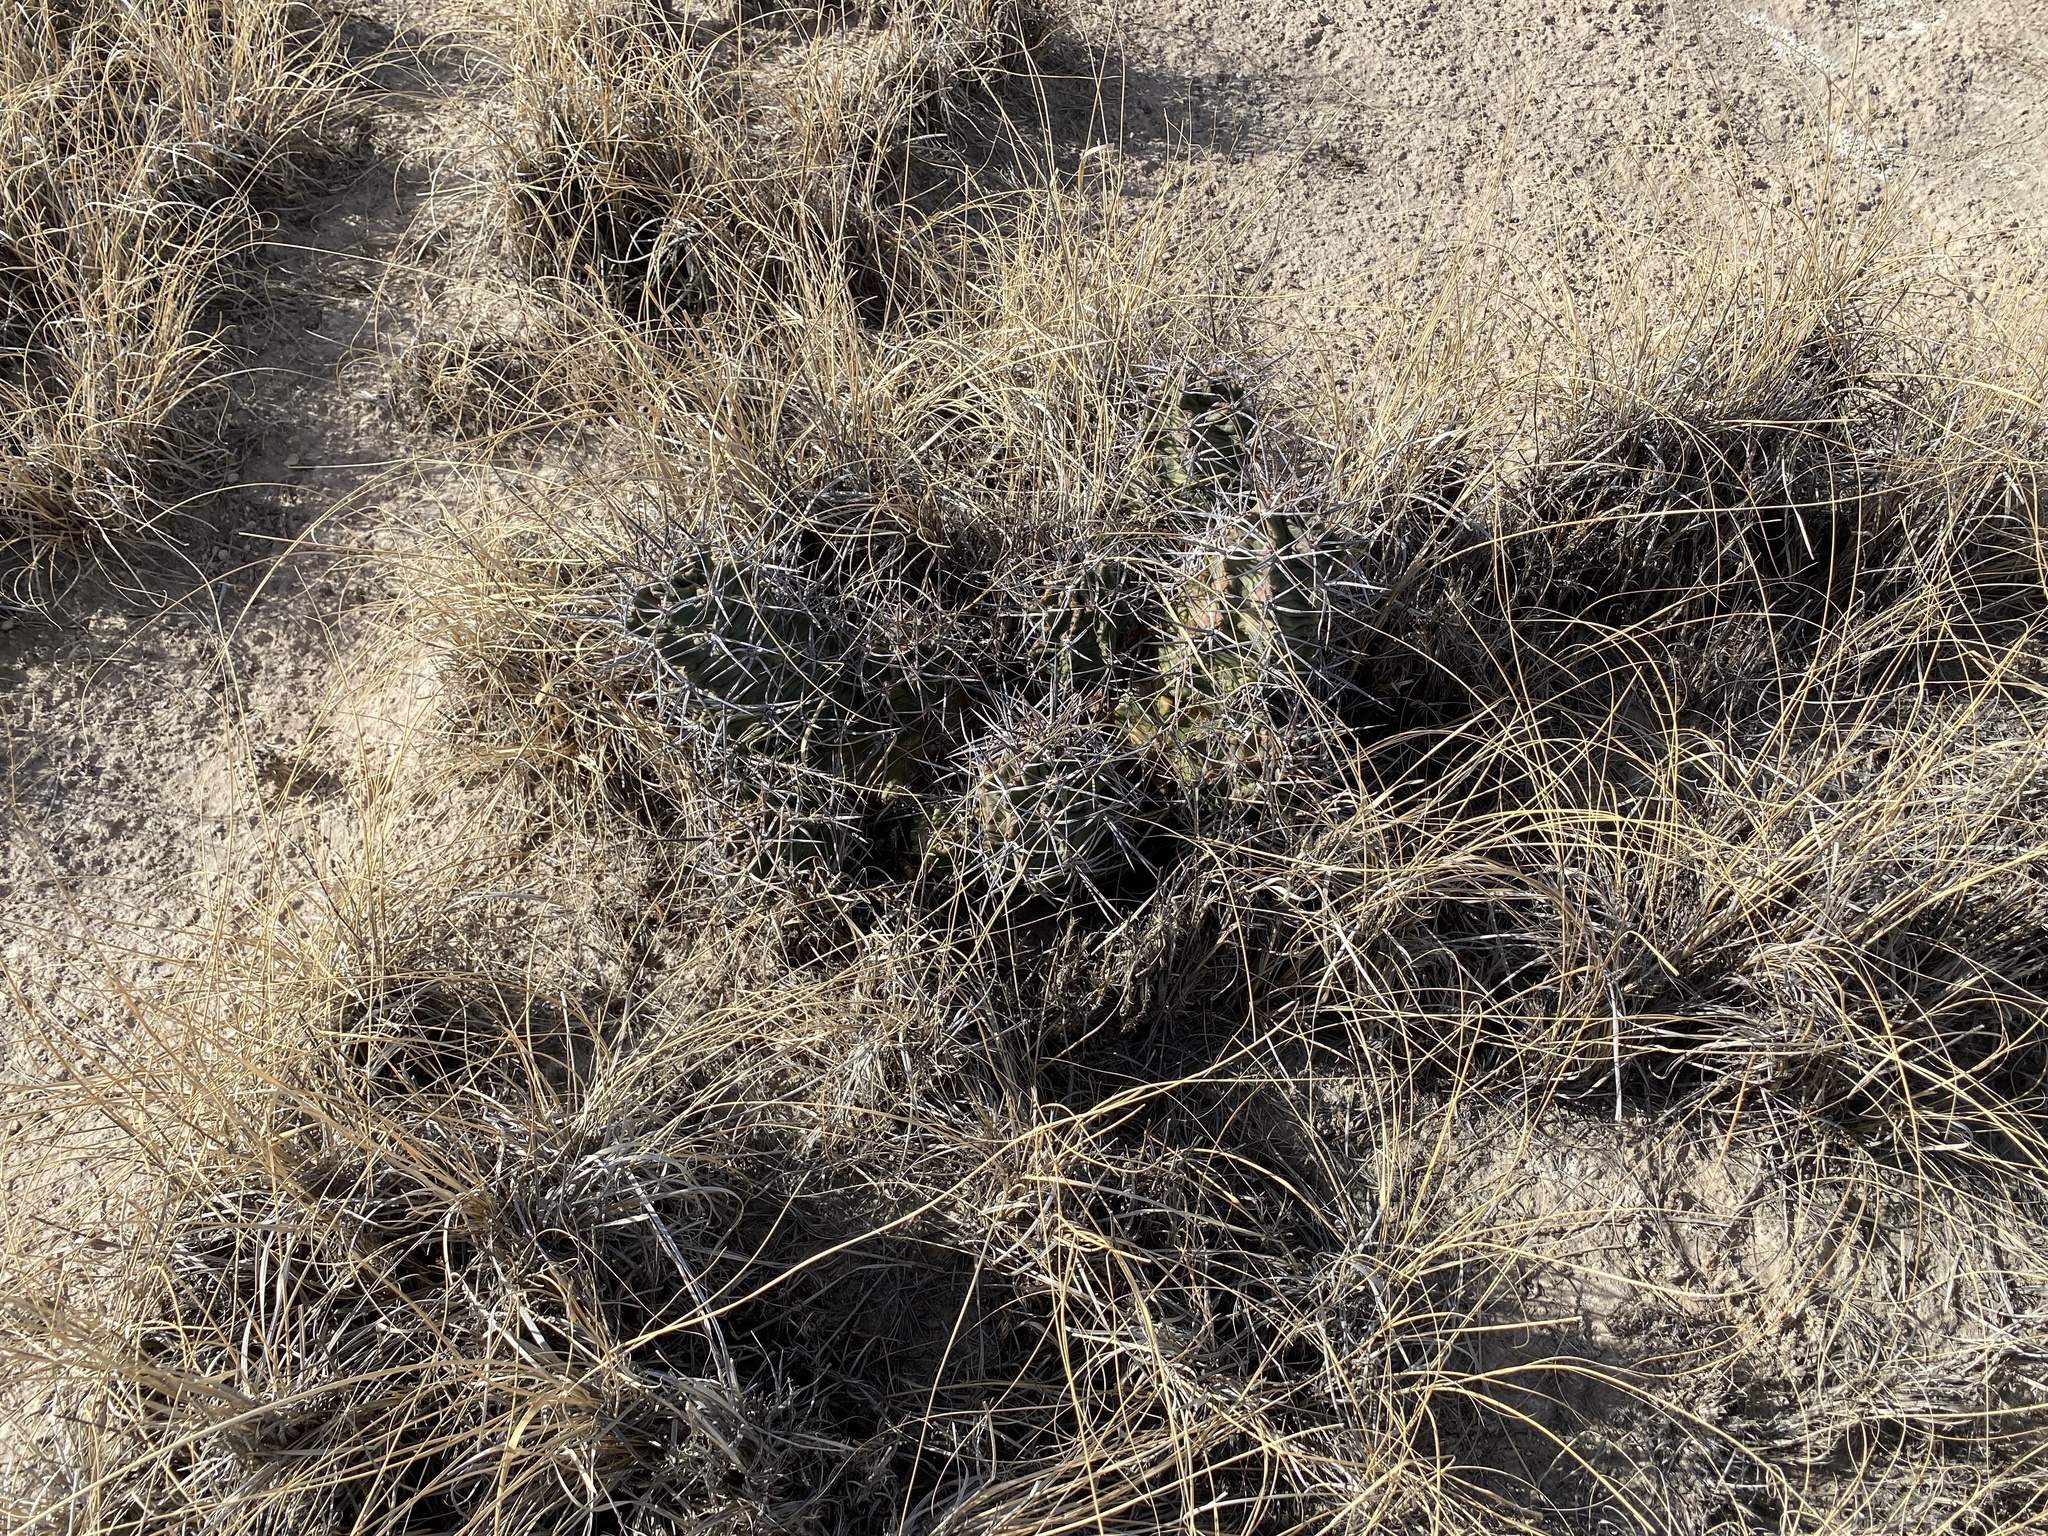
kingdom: Plantae
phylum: Tracheophyta
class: Magnoliopsida
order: Caryophyllales
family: Cactaceae
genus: Echinocereus
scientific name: Echinocereus triglochidiatus
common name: Claretcup hedgehog
